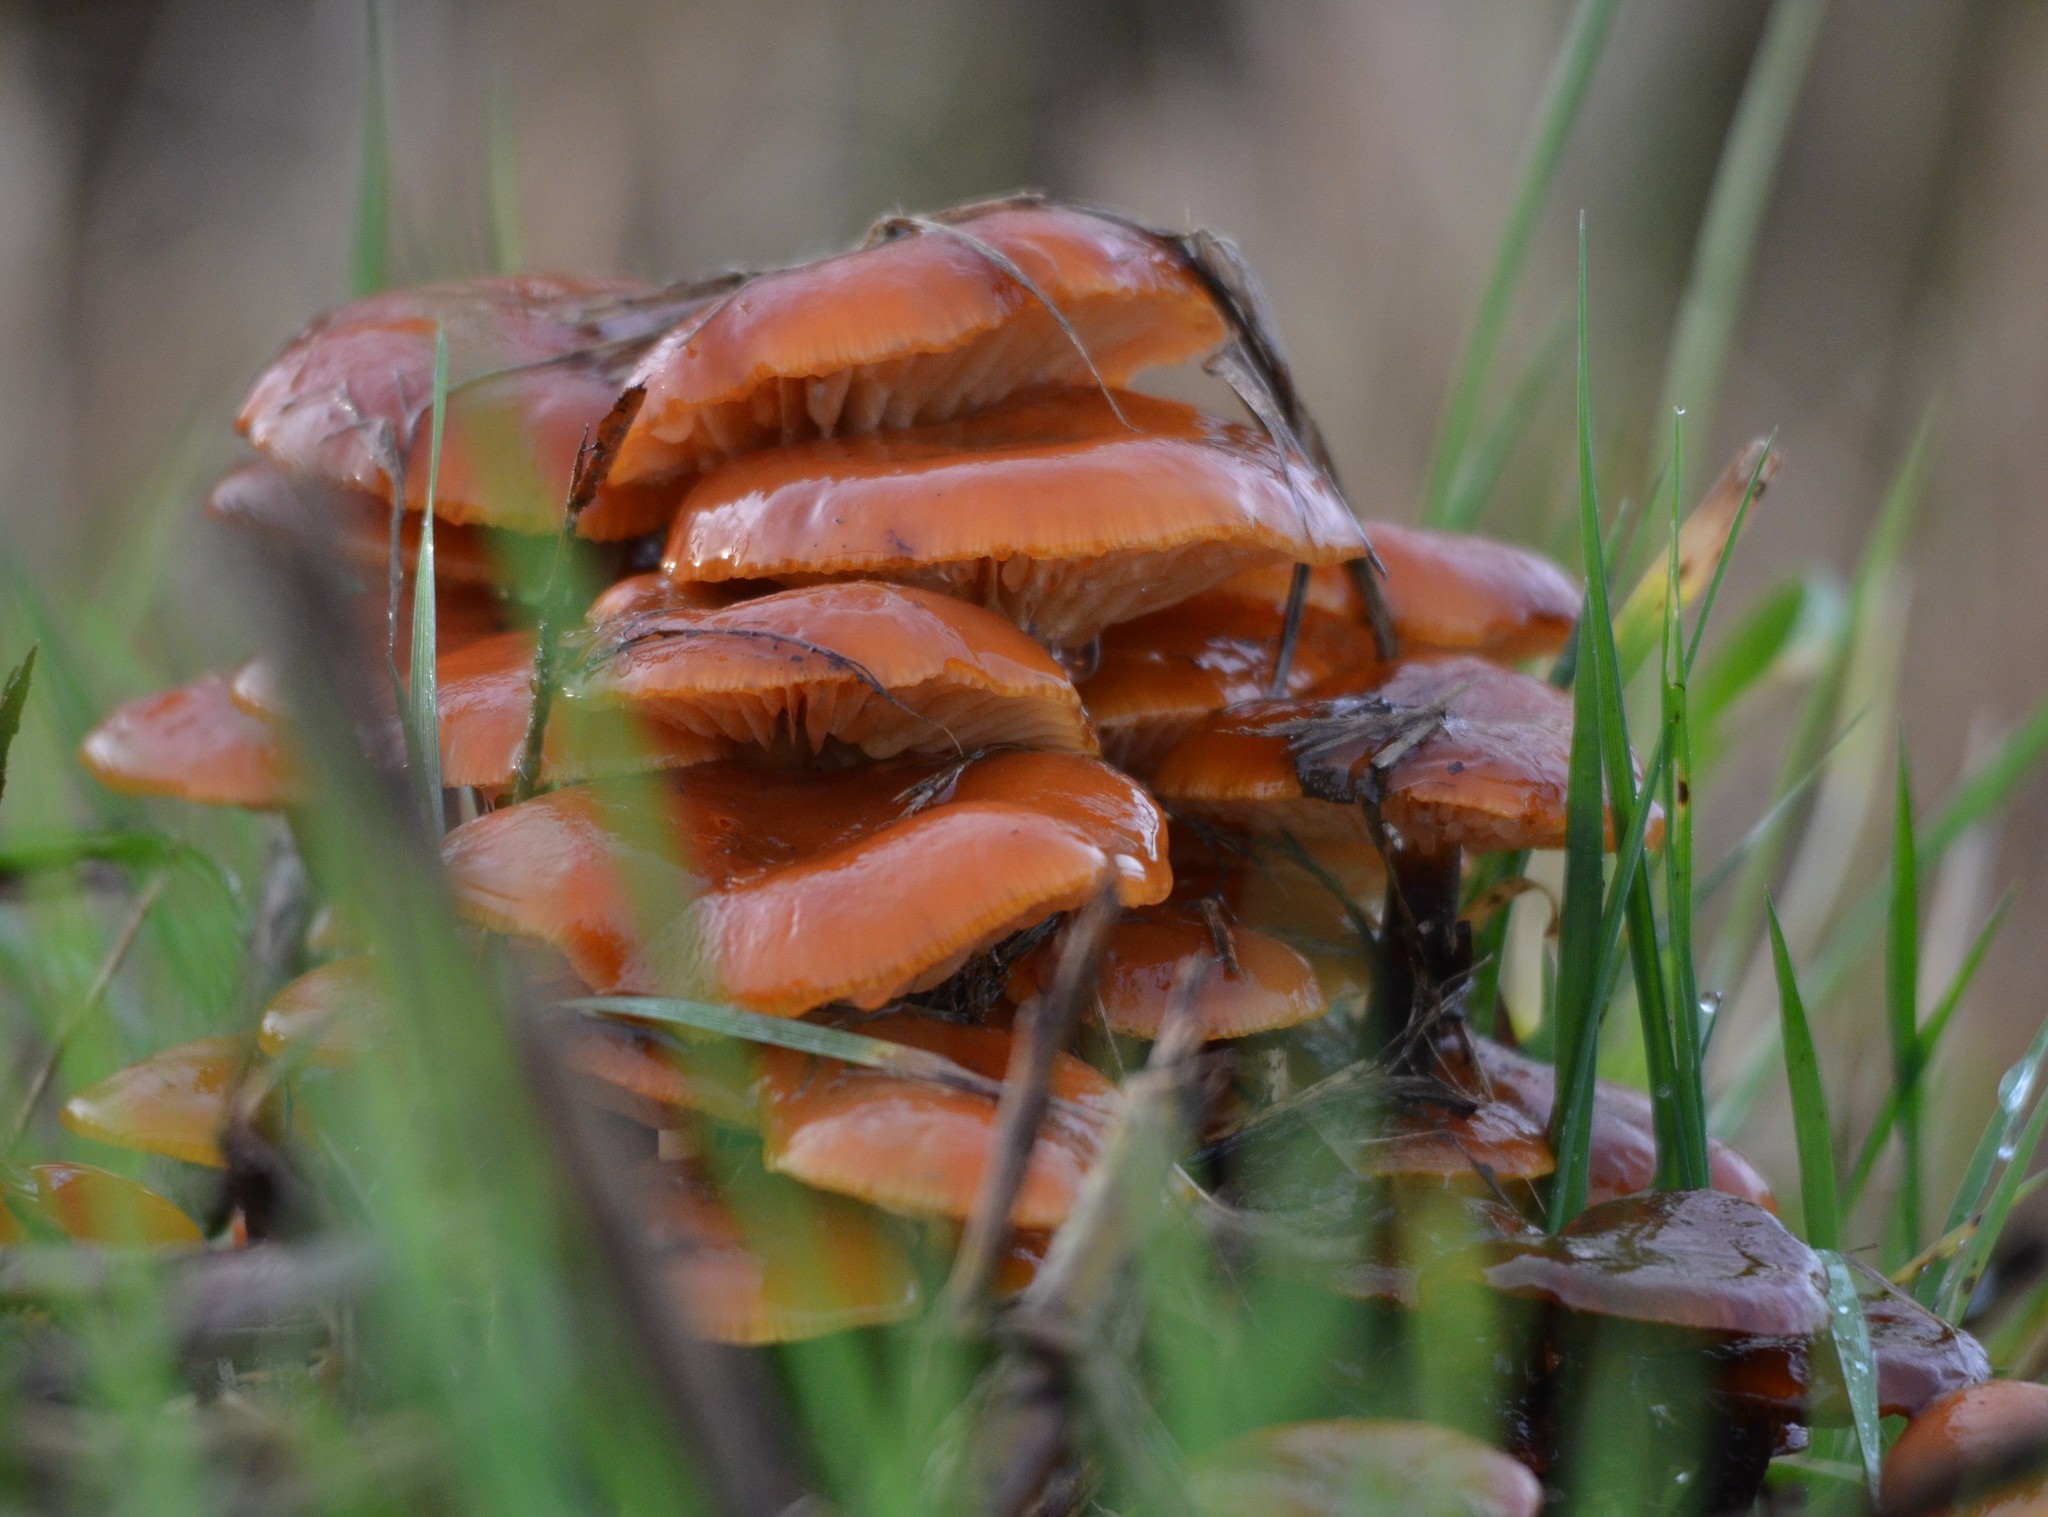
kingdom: Fungi
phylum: Basidiomycota
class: Agaricomycetes
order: Agaricales
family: Physalacriaceae
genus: Flammulina
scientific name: Flammulina
